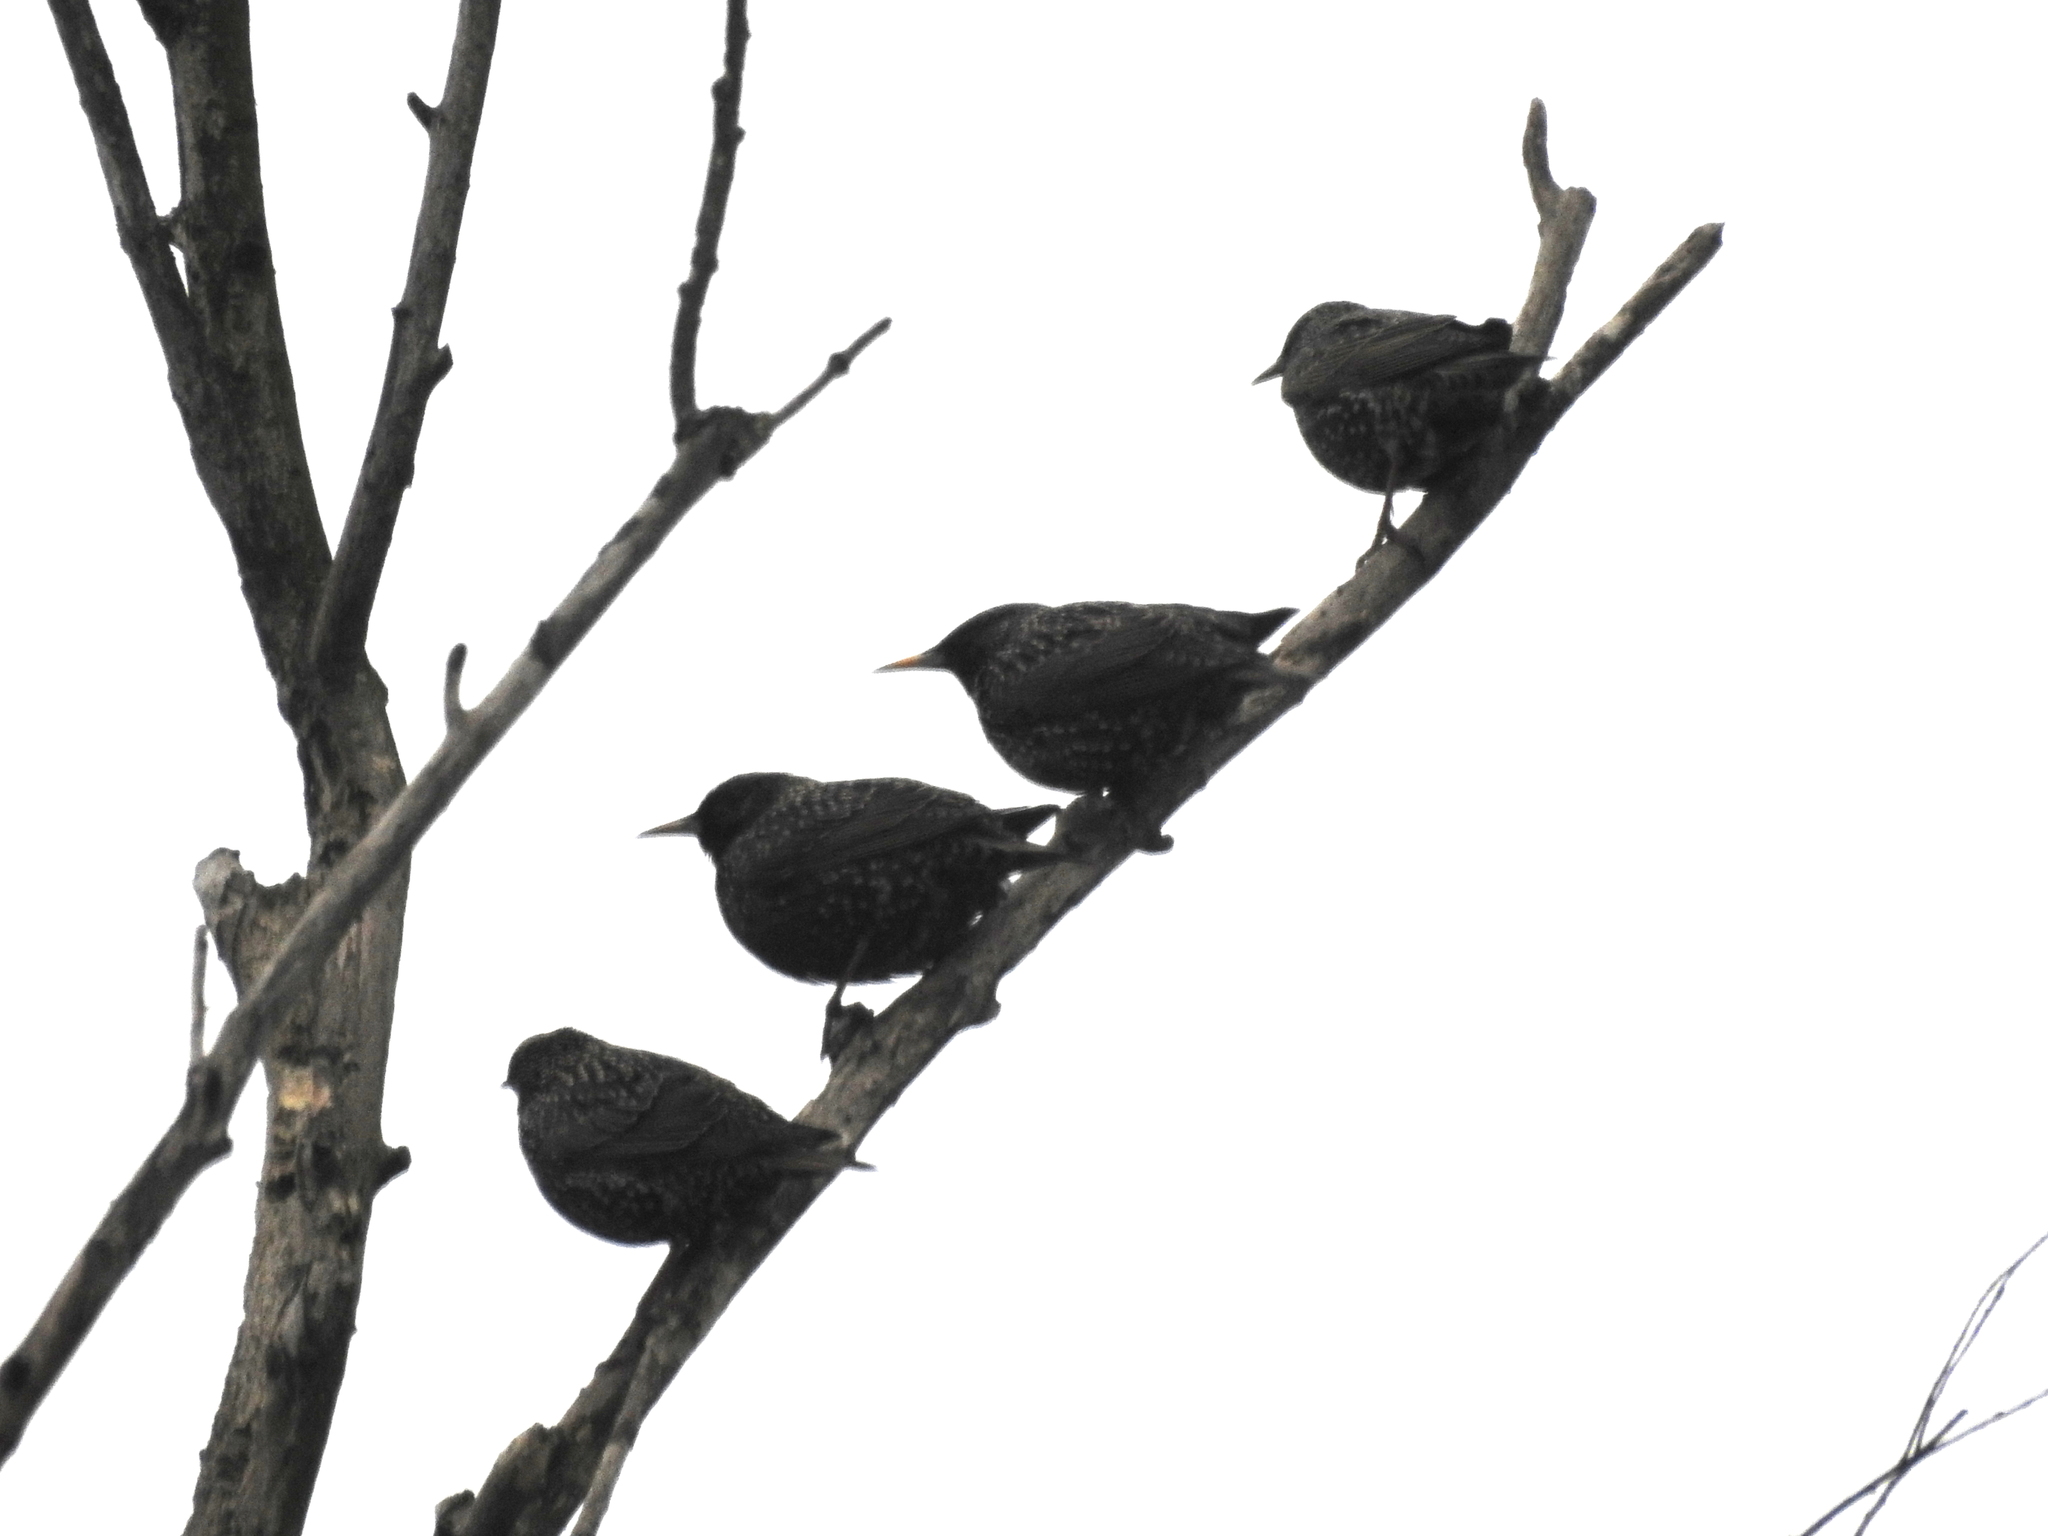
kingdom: Animalia
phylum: Chordata
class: Aves
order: Passeriformes
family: Sturnidae
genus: Sturnus
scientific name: Sturnus vulgaris
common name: Common starling
